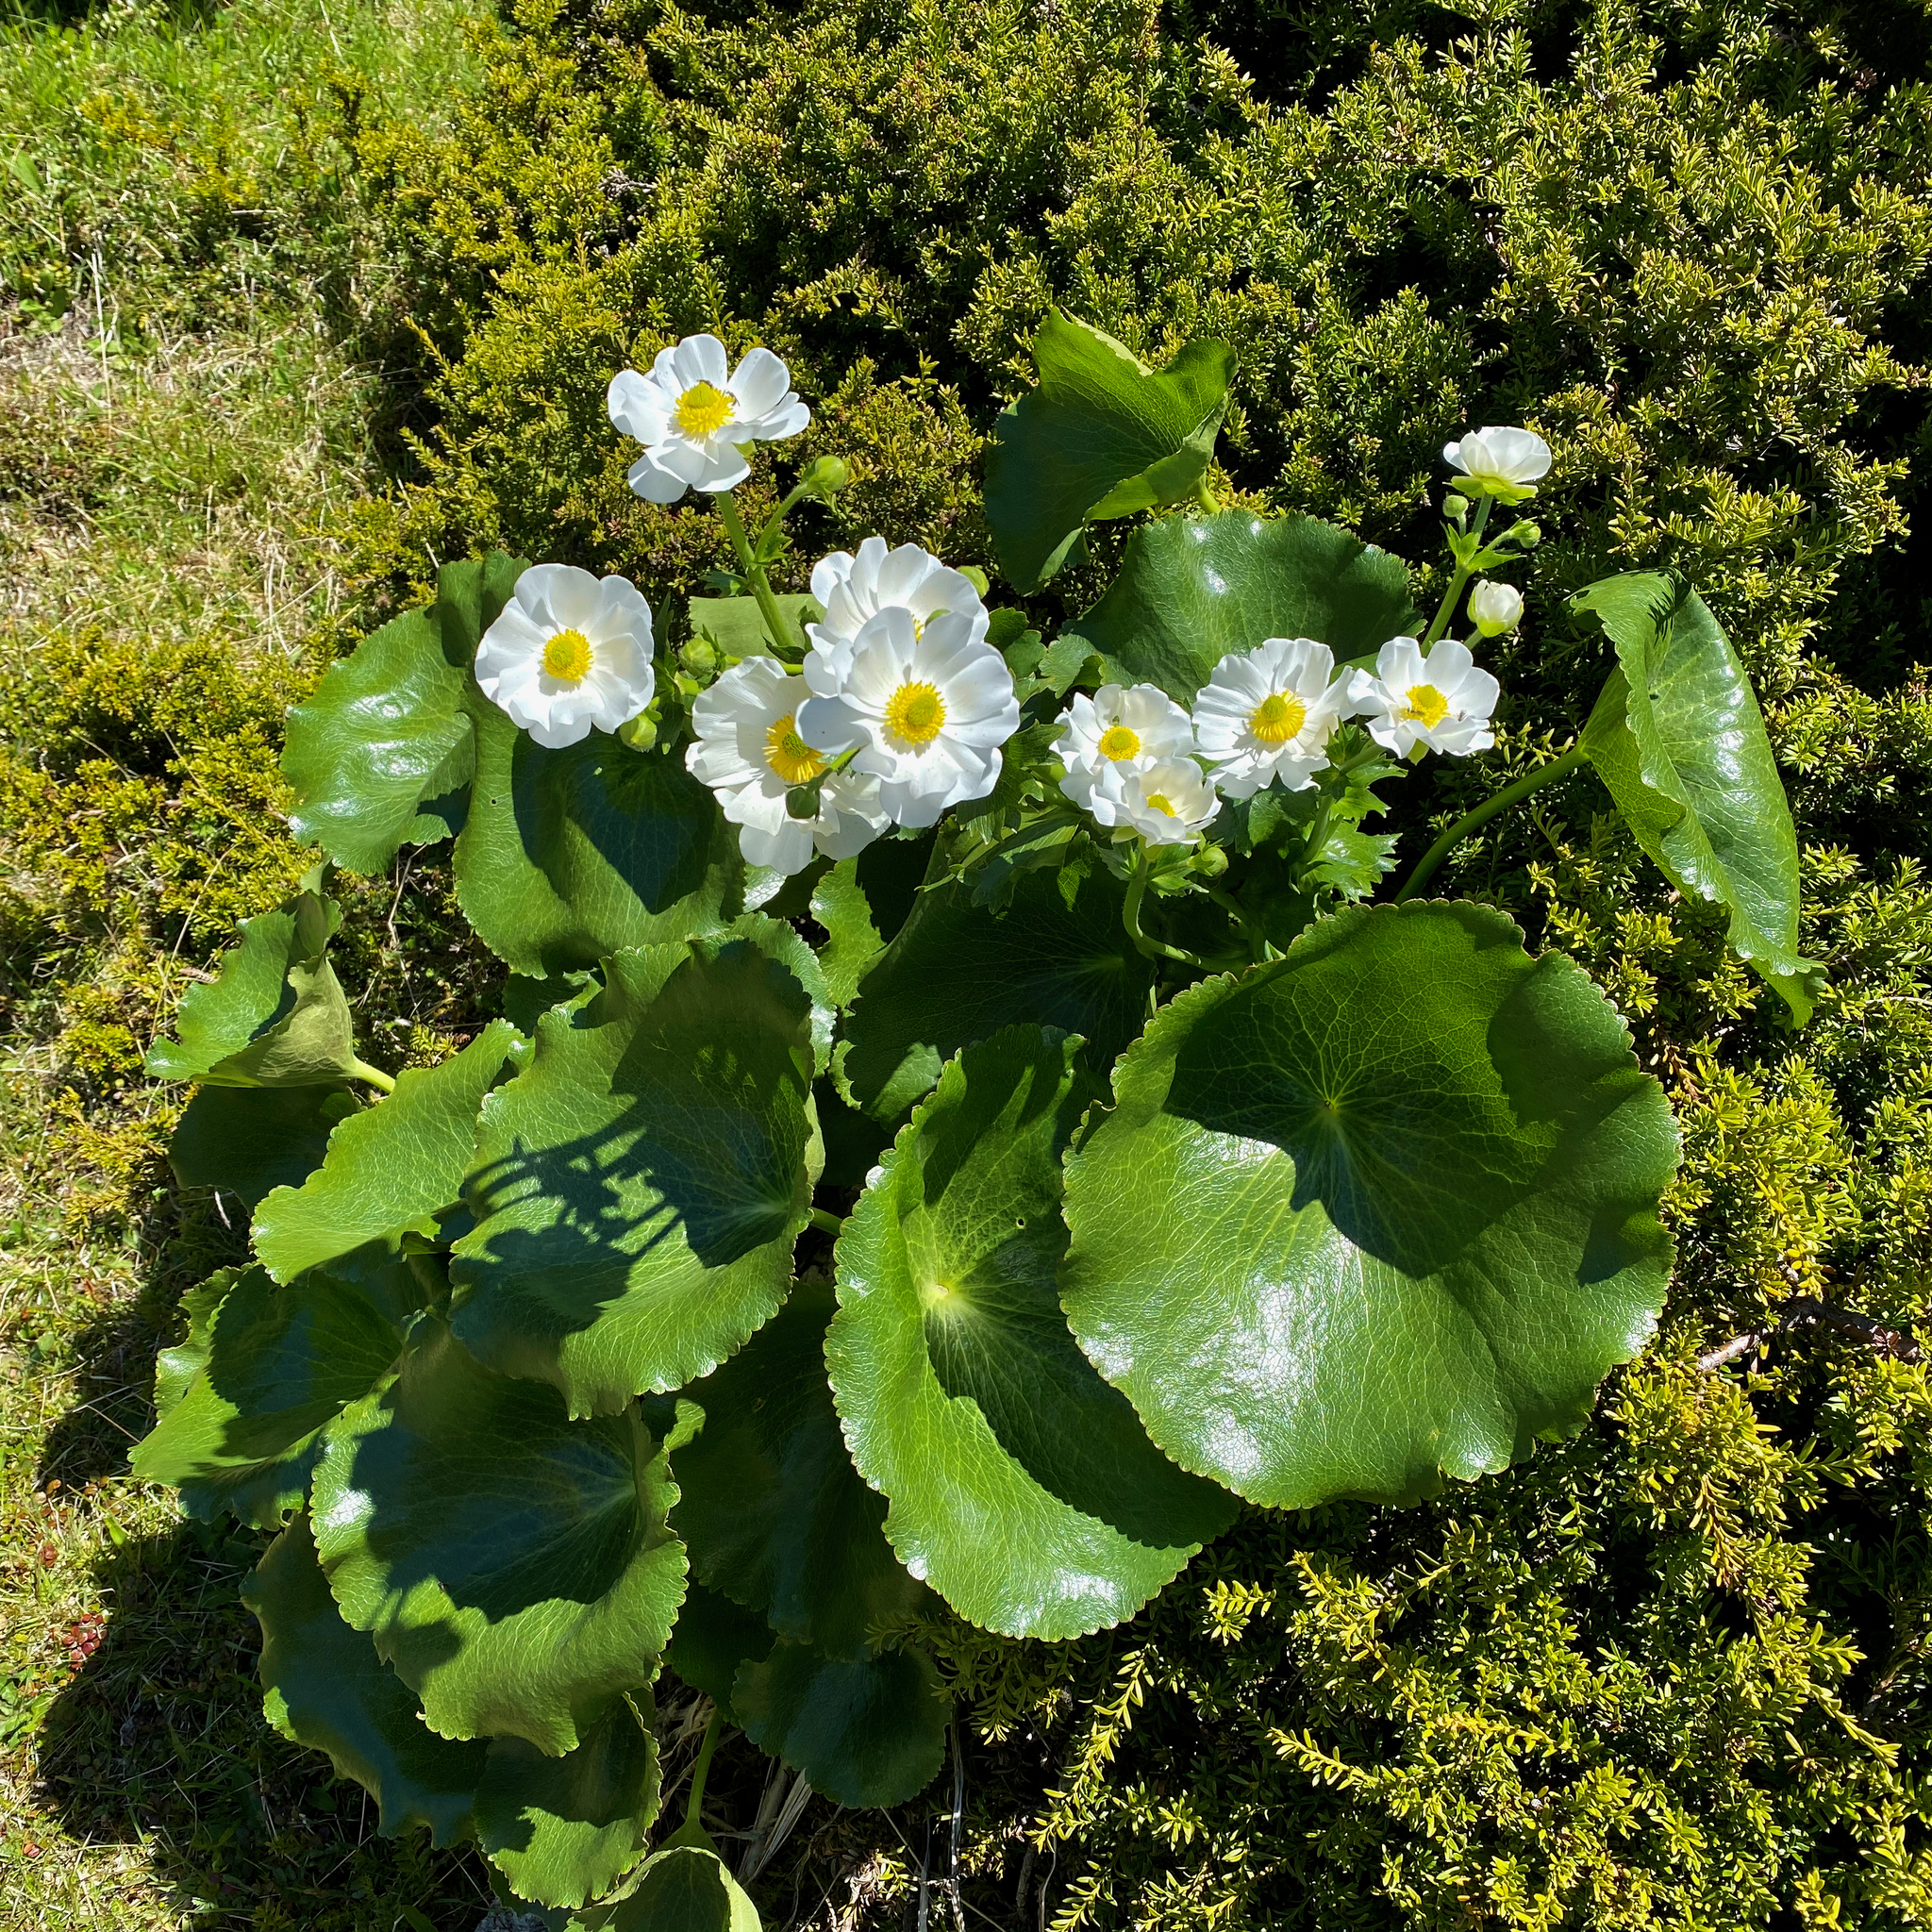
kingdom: Plantae
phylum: Tracheophyta
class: Magnoliopsida
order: Ranunculales
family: Ranunculaceae
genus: Ranunculus
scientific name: Ranunculus lyallii
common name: Mountain-lily
